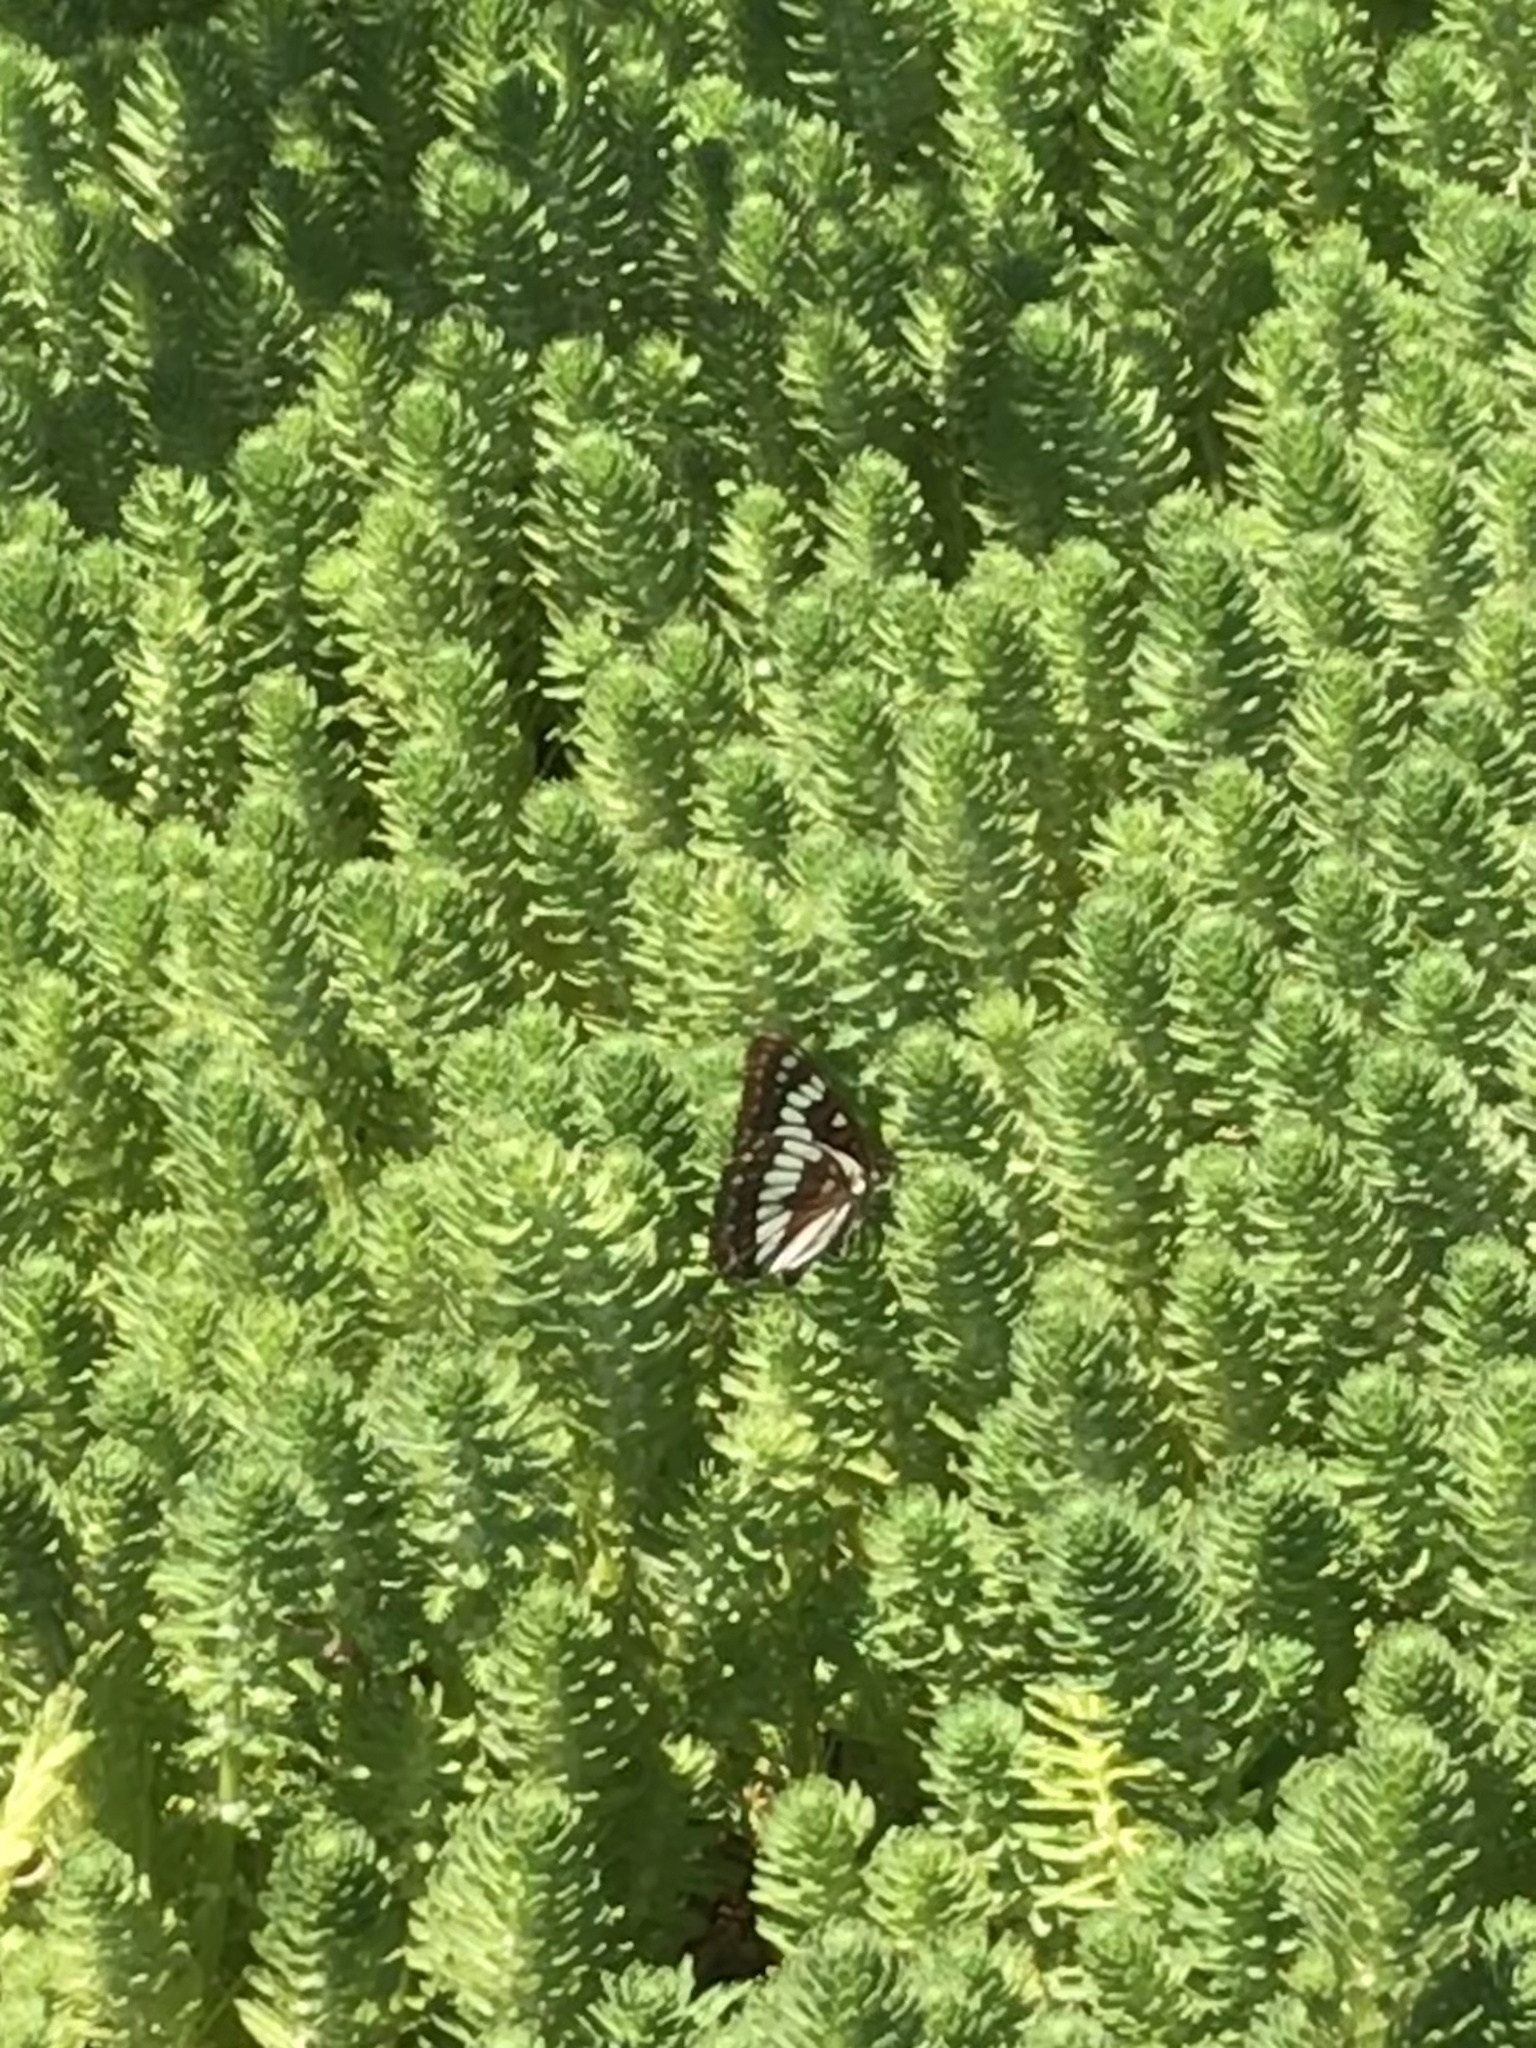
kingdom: Animalia
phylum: Arthropoda
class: Insecta
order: Lepidoptera
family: Nymphalidae
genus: Limenitis
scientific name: Limenitis lorquini
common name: Lorquin's admiral
